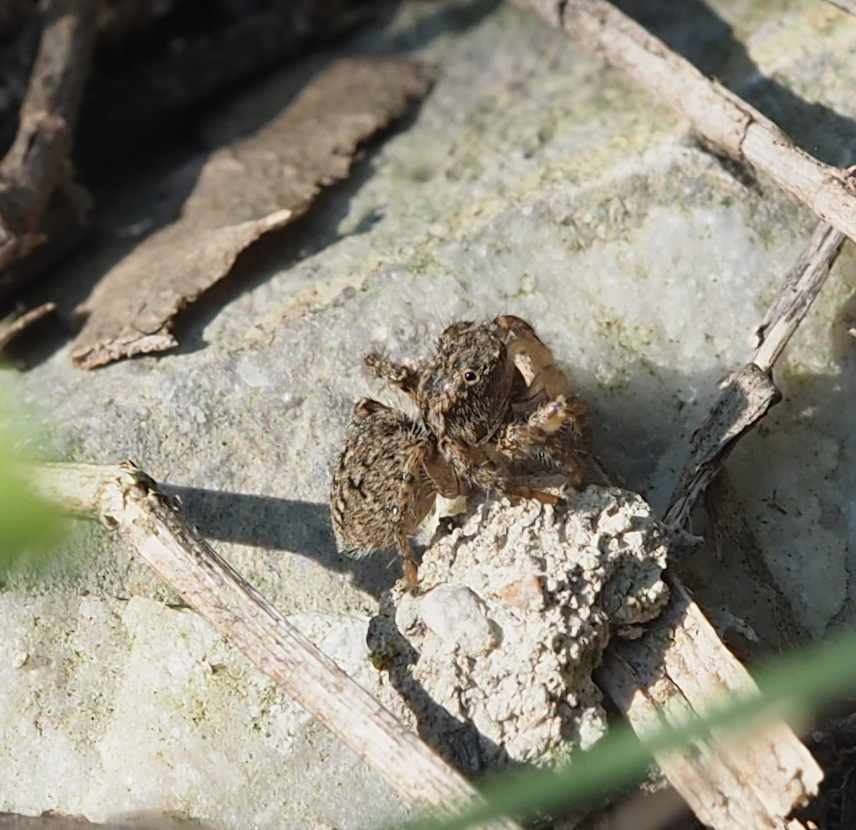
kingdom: Animalia
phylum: Arthropoda
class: Arachnida
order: Araneae
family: Salticidae
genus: Asianellus
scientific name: Asianellus festivus
